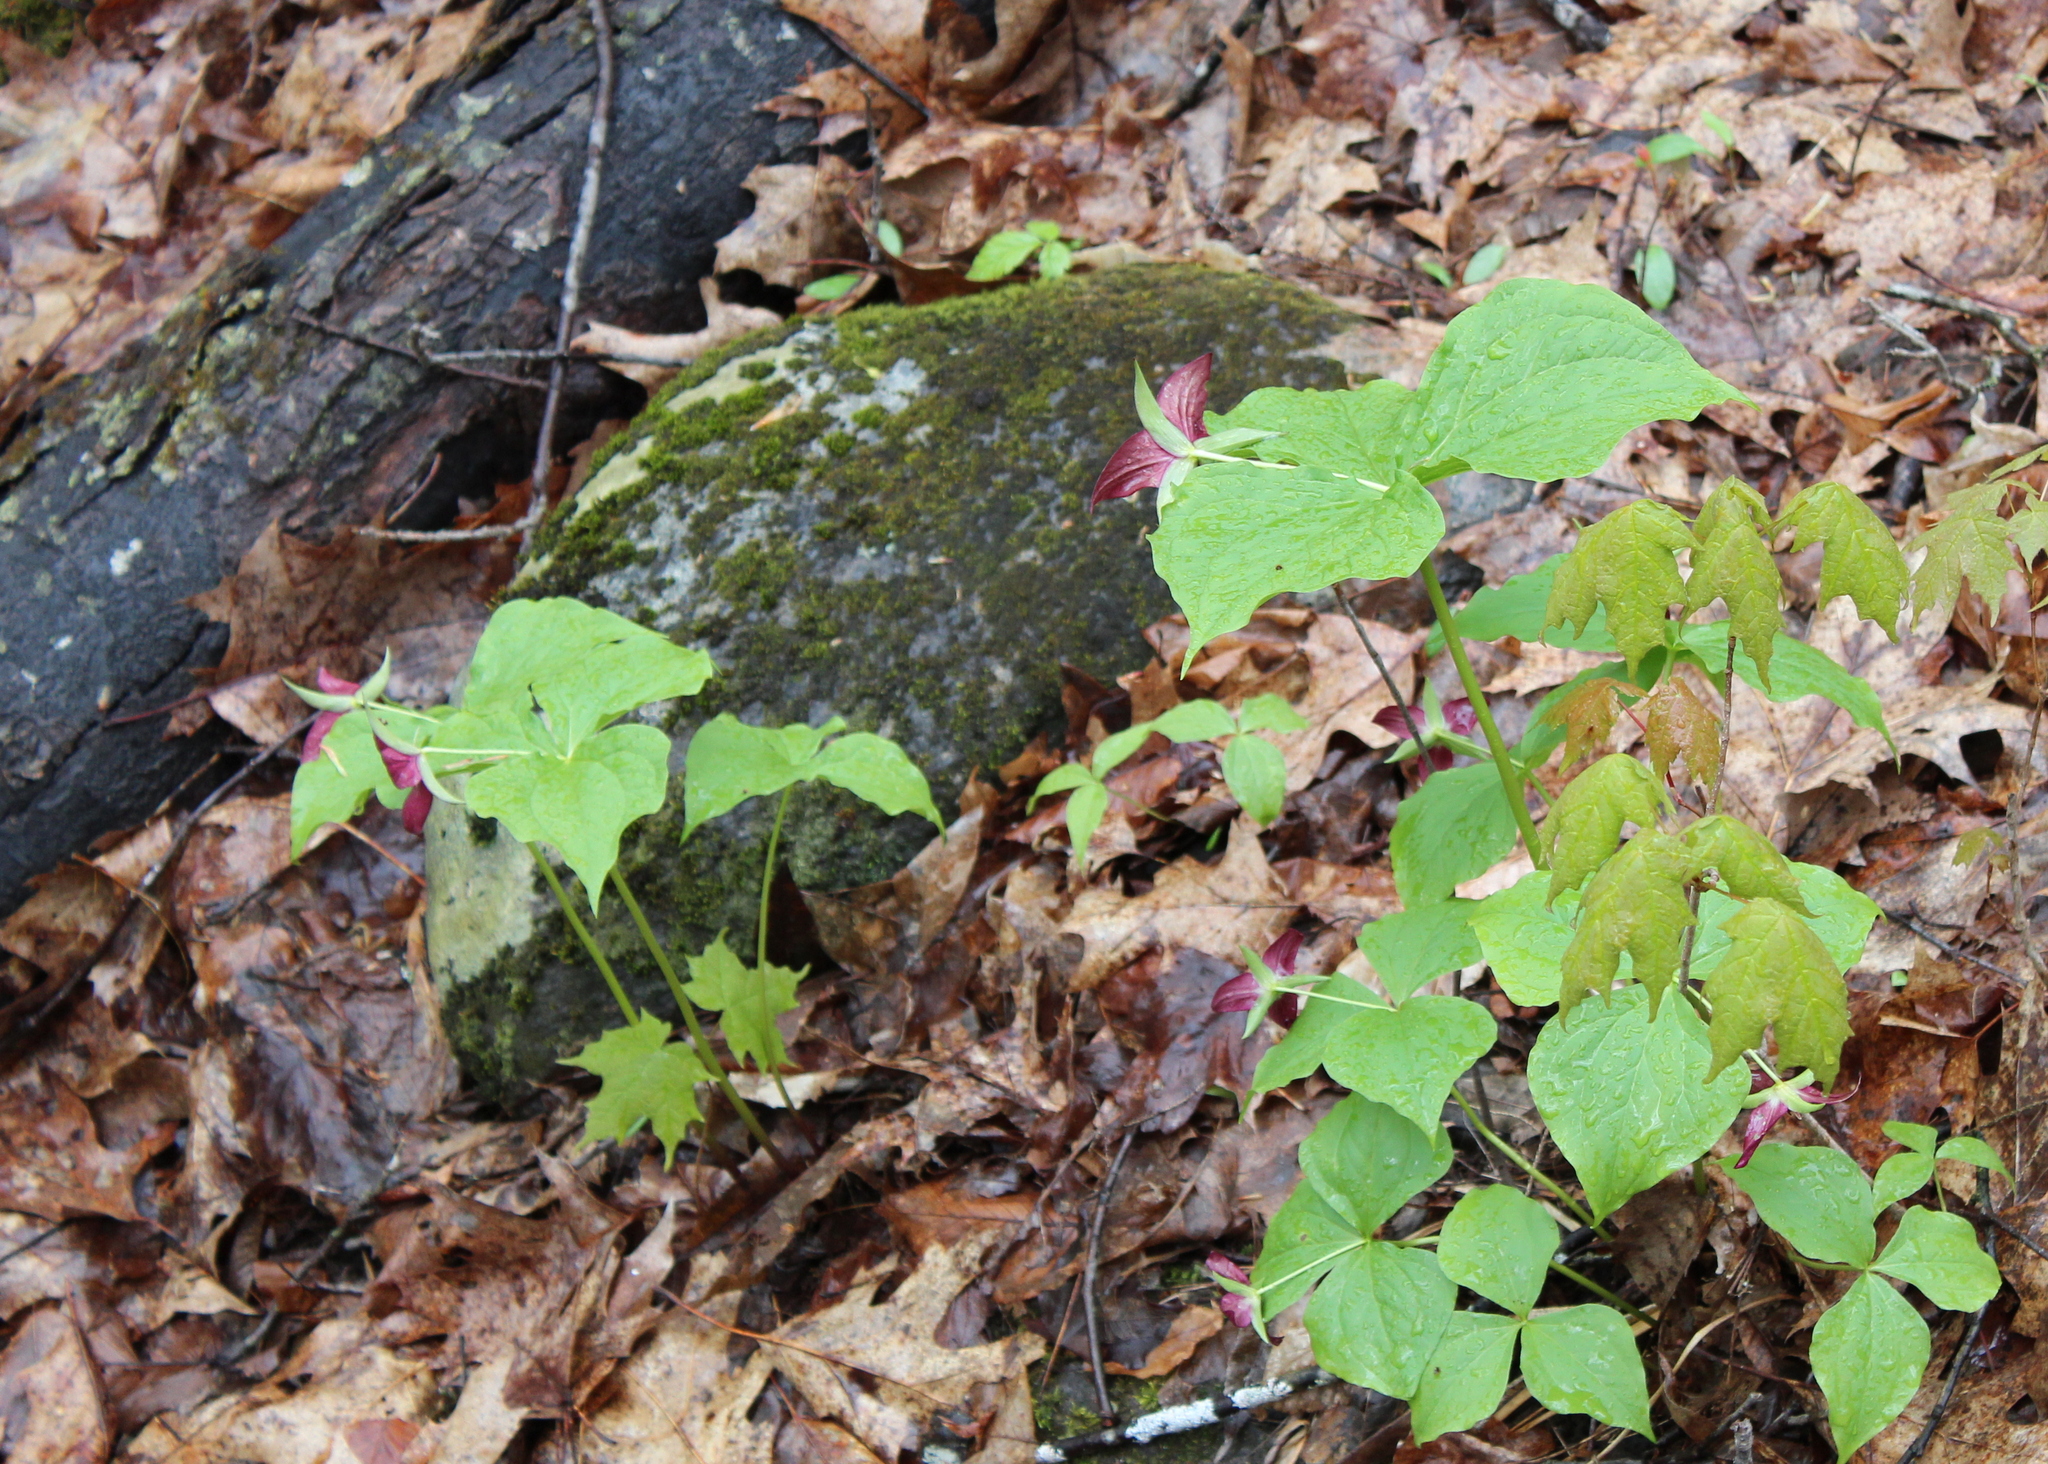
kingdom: Plantae
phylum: Tracheophyta
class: Liliopsida
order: Liliales
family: Melanthiaceae
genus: Trillium
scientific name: Trillium erectum
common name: Purple trillium
